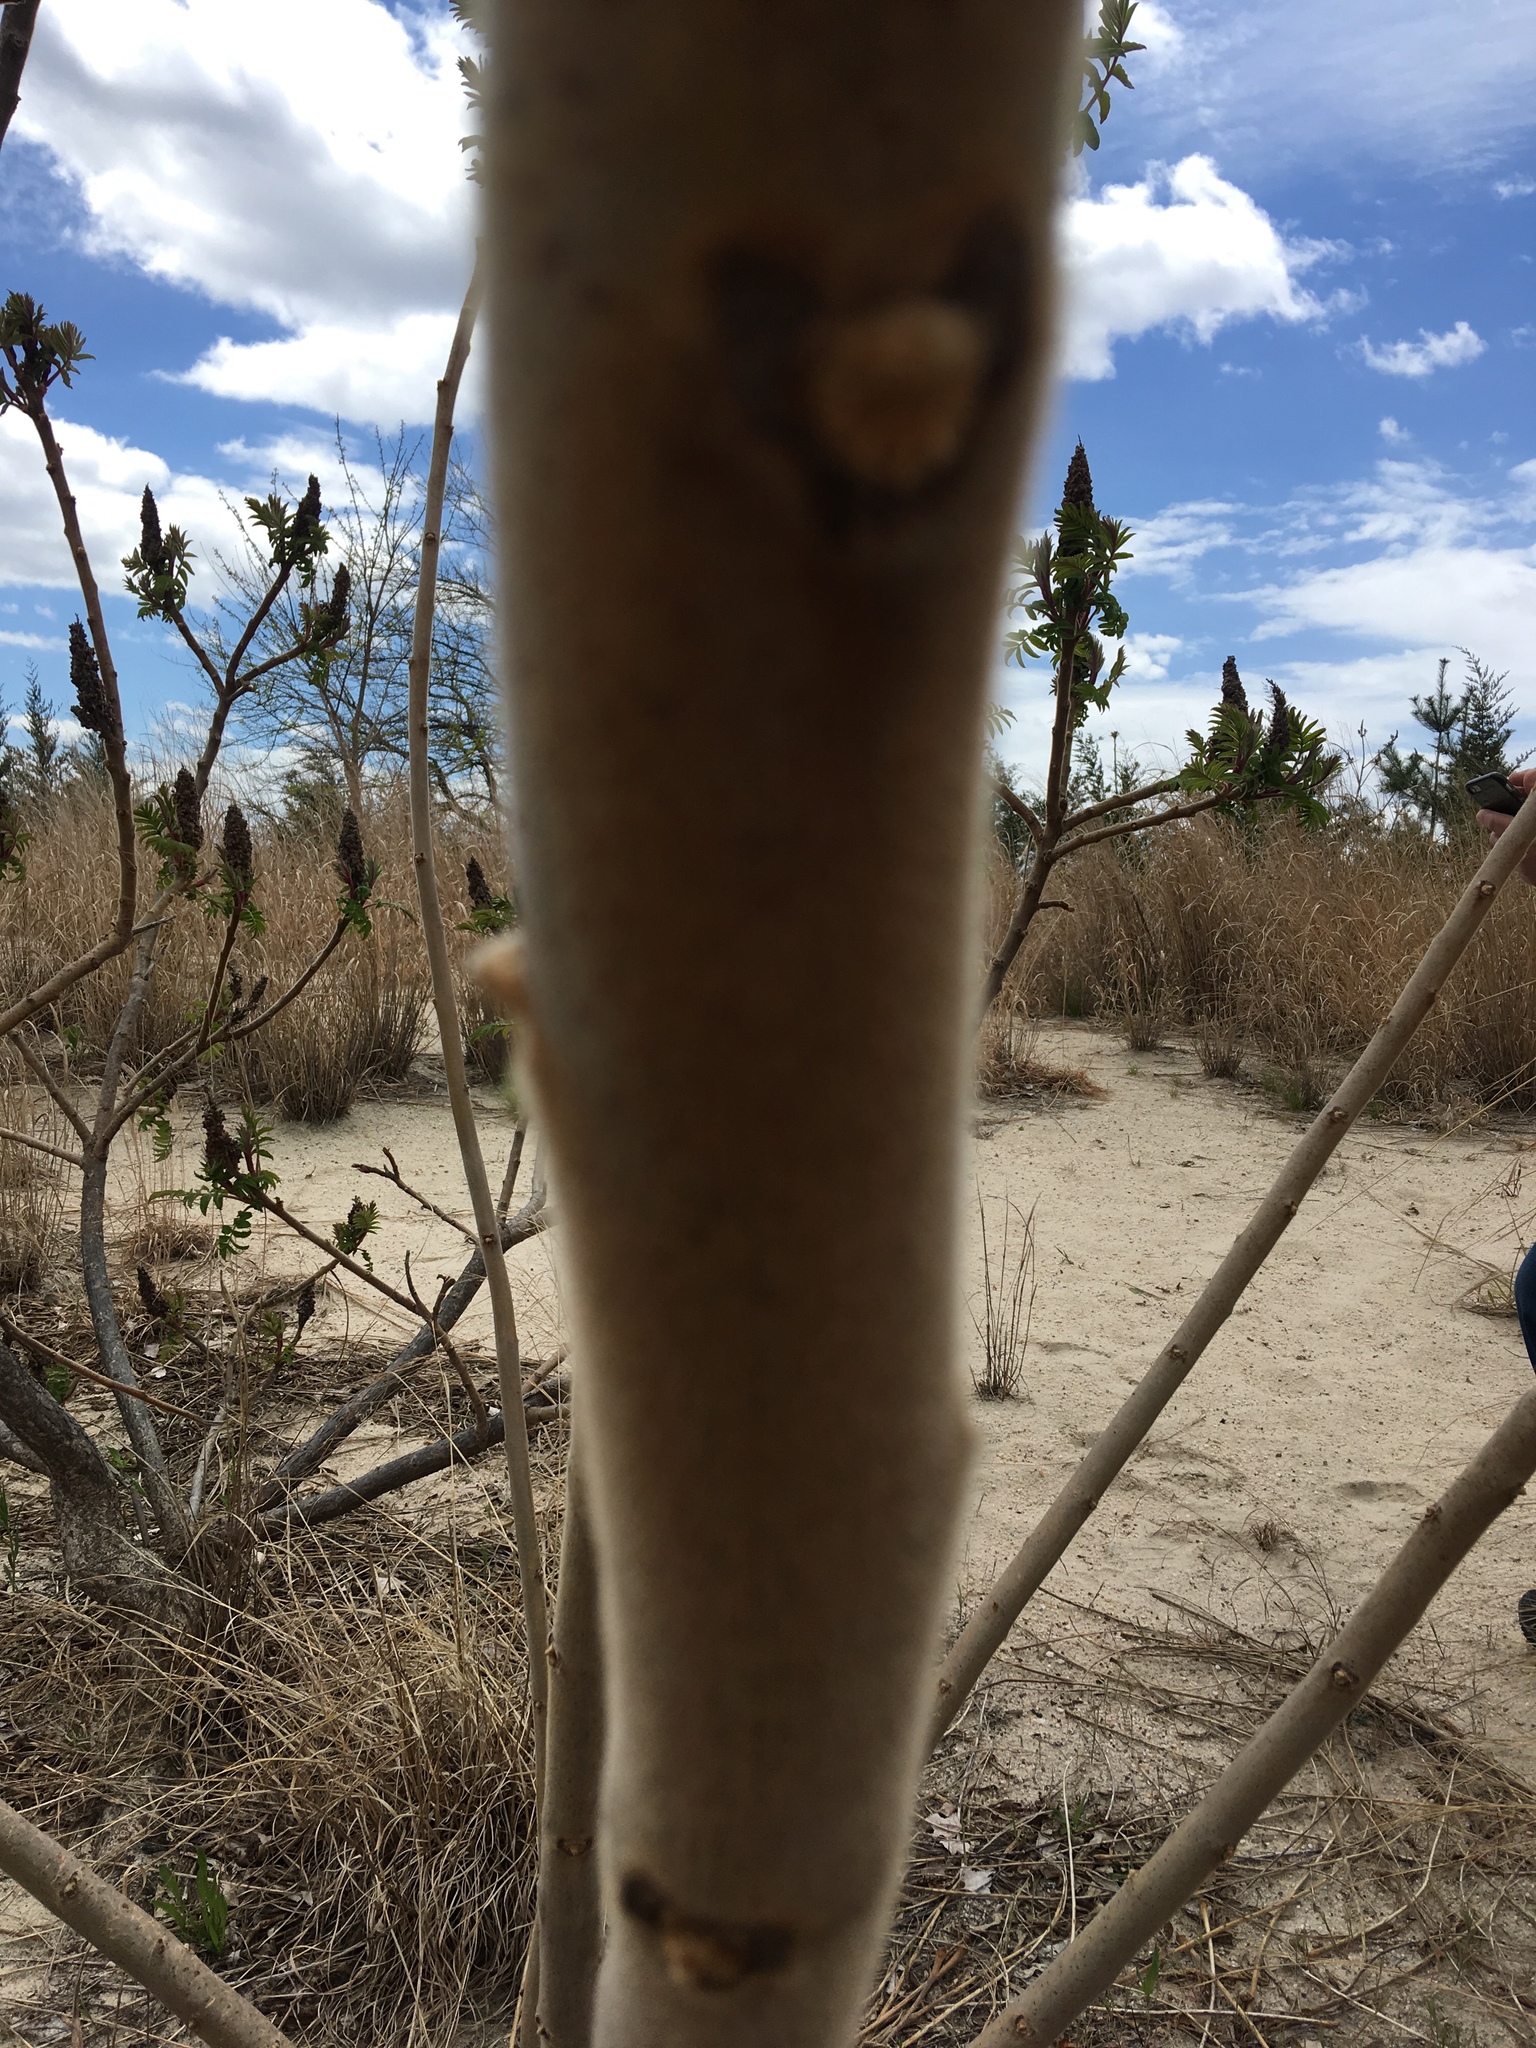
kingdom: Plantae
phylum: Tracheophyta
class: Magnoliopsida
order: Sapindales
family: Anacardiaceae
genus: Rhus
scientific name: Rhus typhina
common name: Staghorn sumac
